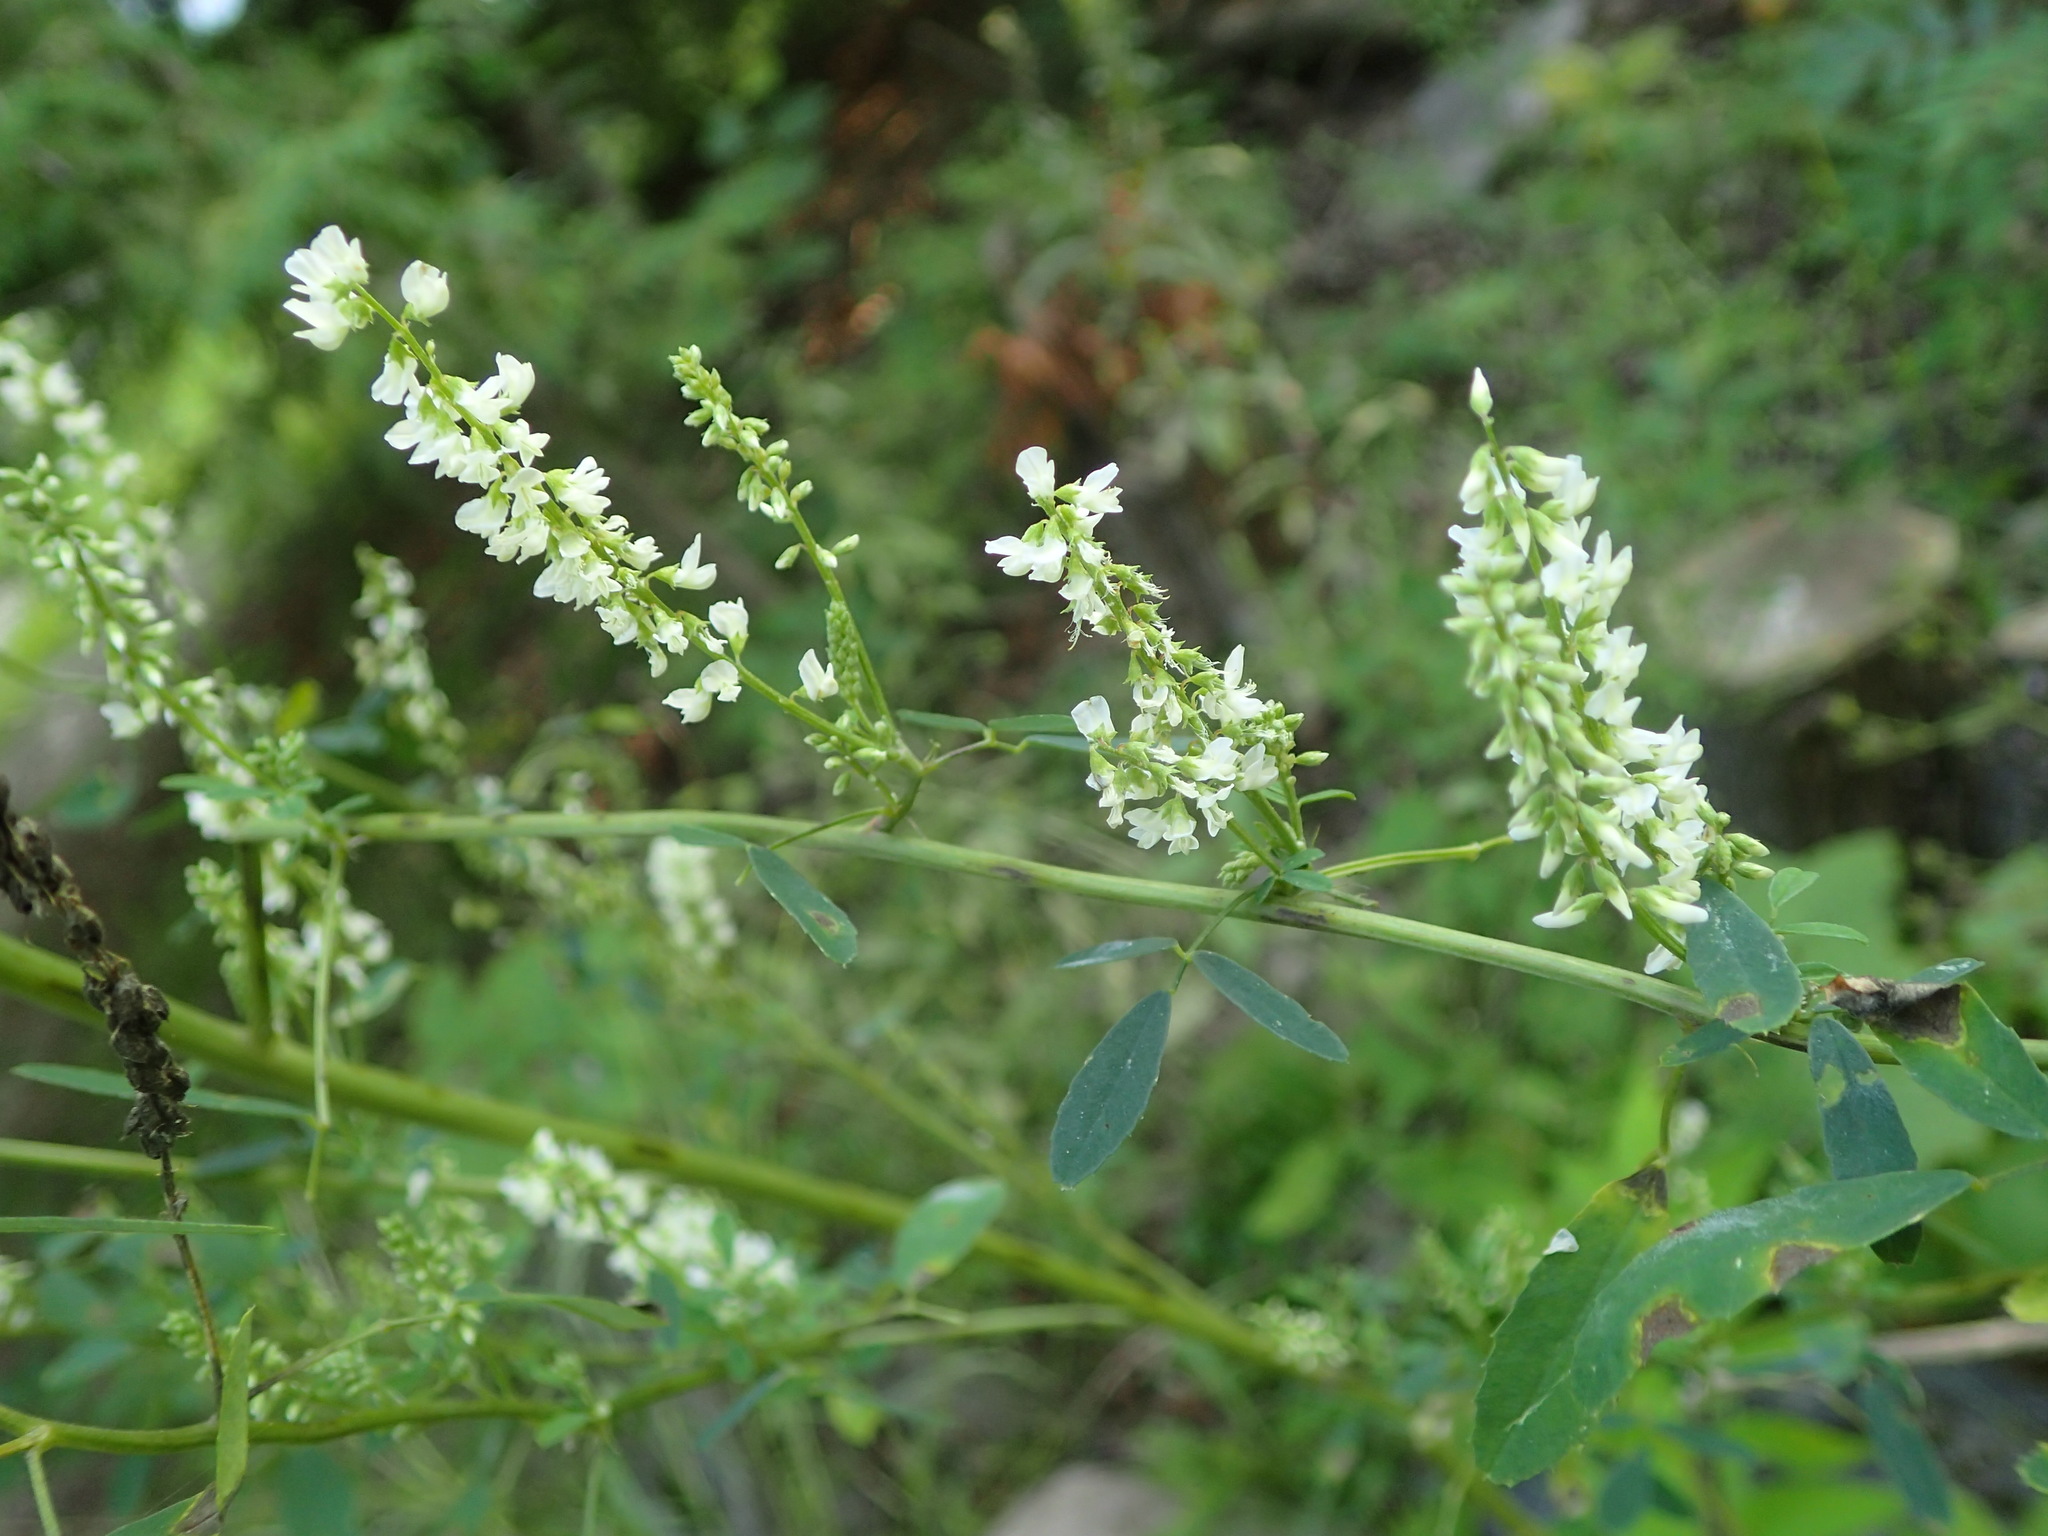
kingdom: Plantae
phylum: Tracheophyta
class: Magnoliopsida
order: Fabales
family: Fabaceae
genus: Melilotus
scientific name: Melilotus albus
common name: White melilot
